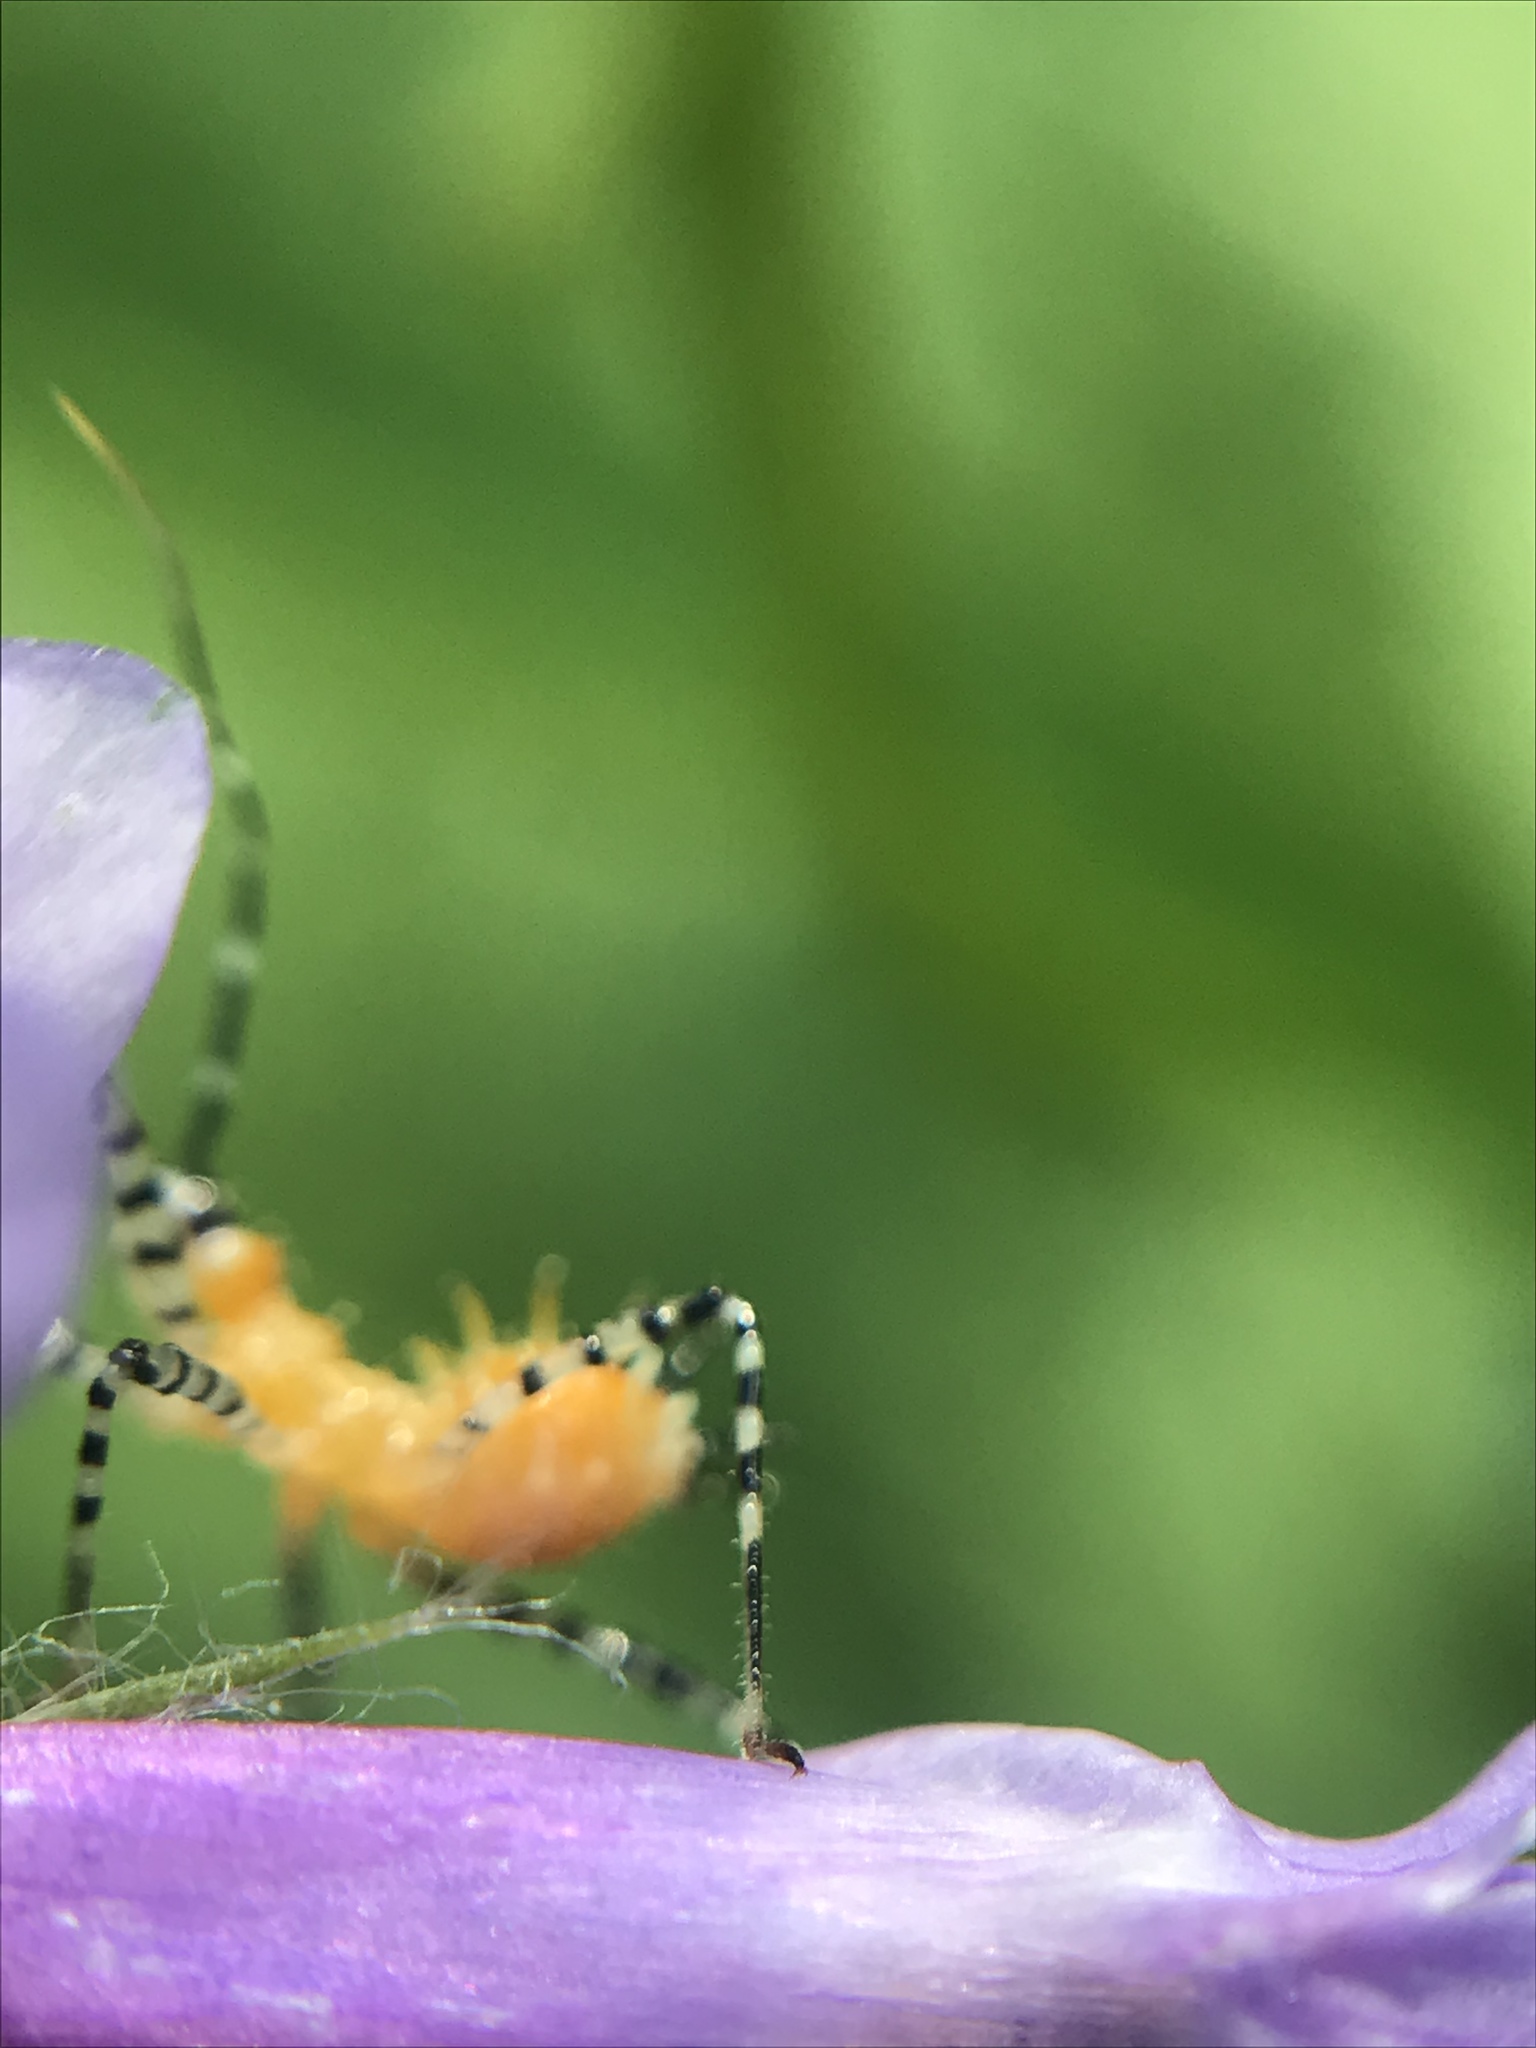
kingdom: Animalia
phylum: Arthropoda
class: Insecta
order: Hemiptera
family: Reduviidae
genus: Pselliopus
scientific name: Pselliopus barberi
